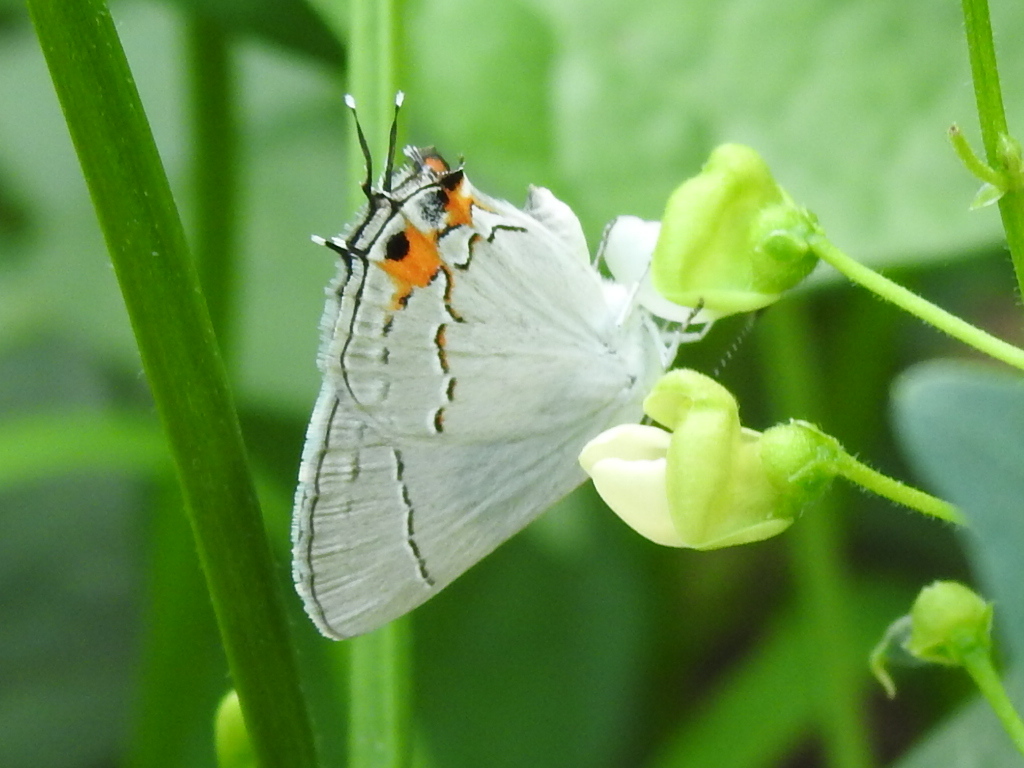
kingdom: Animalia
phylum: Arthropoda
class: Insecta
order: Lepidoptera
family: Lycaenidae
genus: Strymon
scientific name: Strymon melinus
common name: Gray hairstreak
